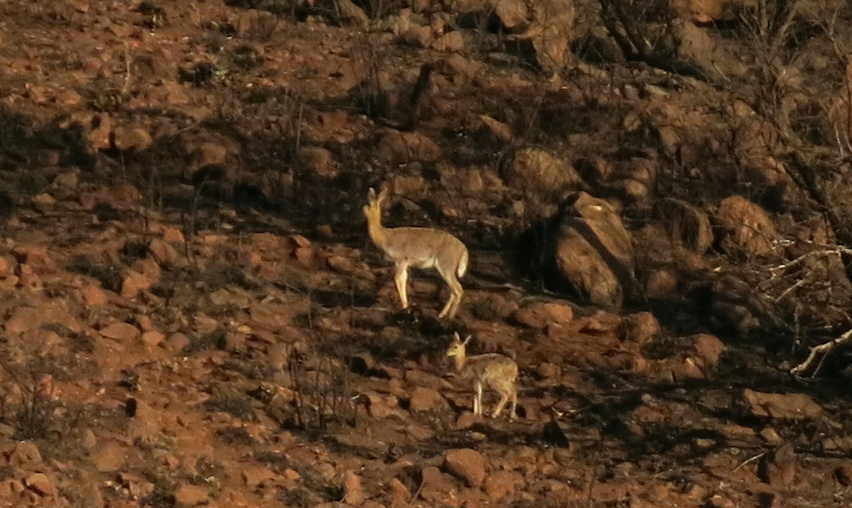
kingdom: Animalia
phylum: Chordata
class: Mammalia
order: Artiodactyla
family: Bovidae
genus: Redunca
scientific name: Redunca fulvorufula
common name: Mountain reedbuck
